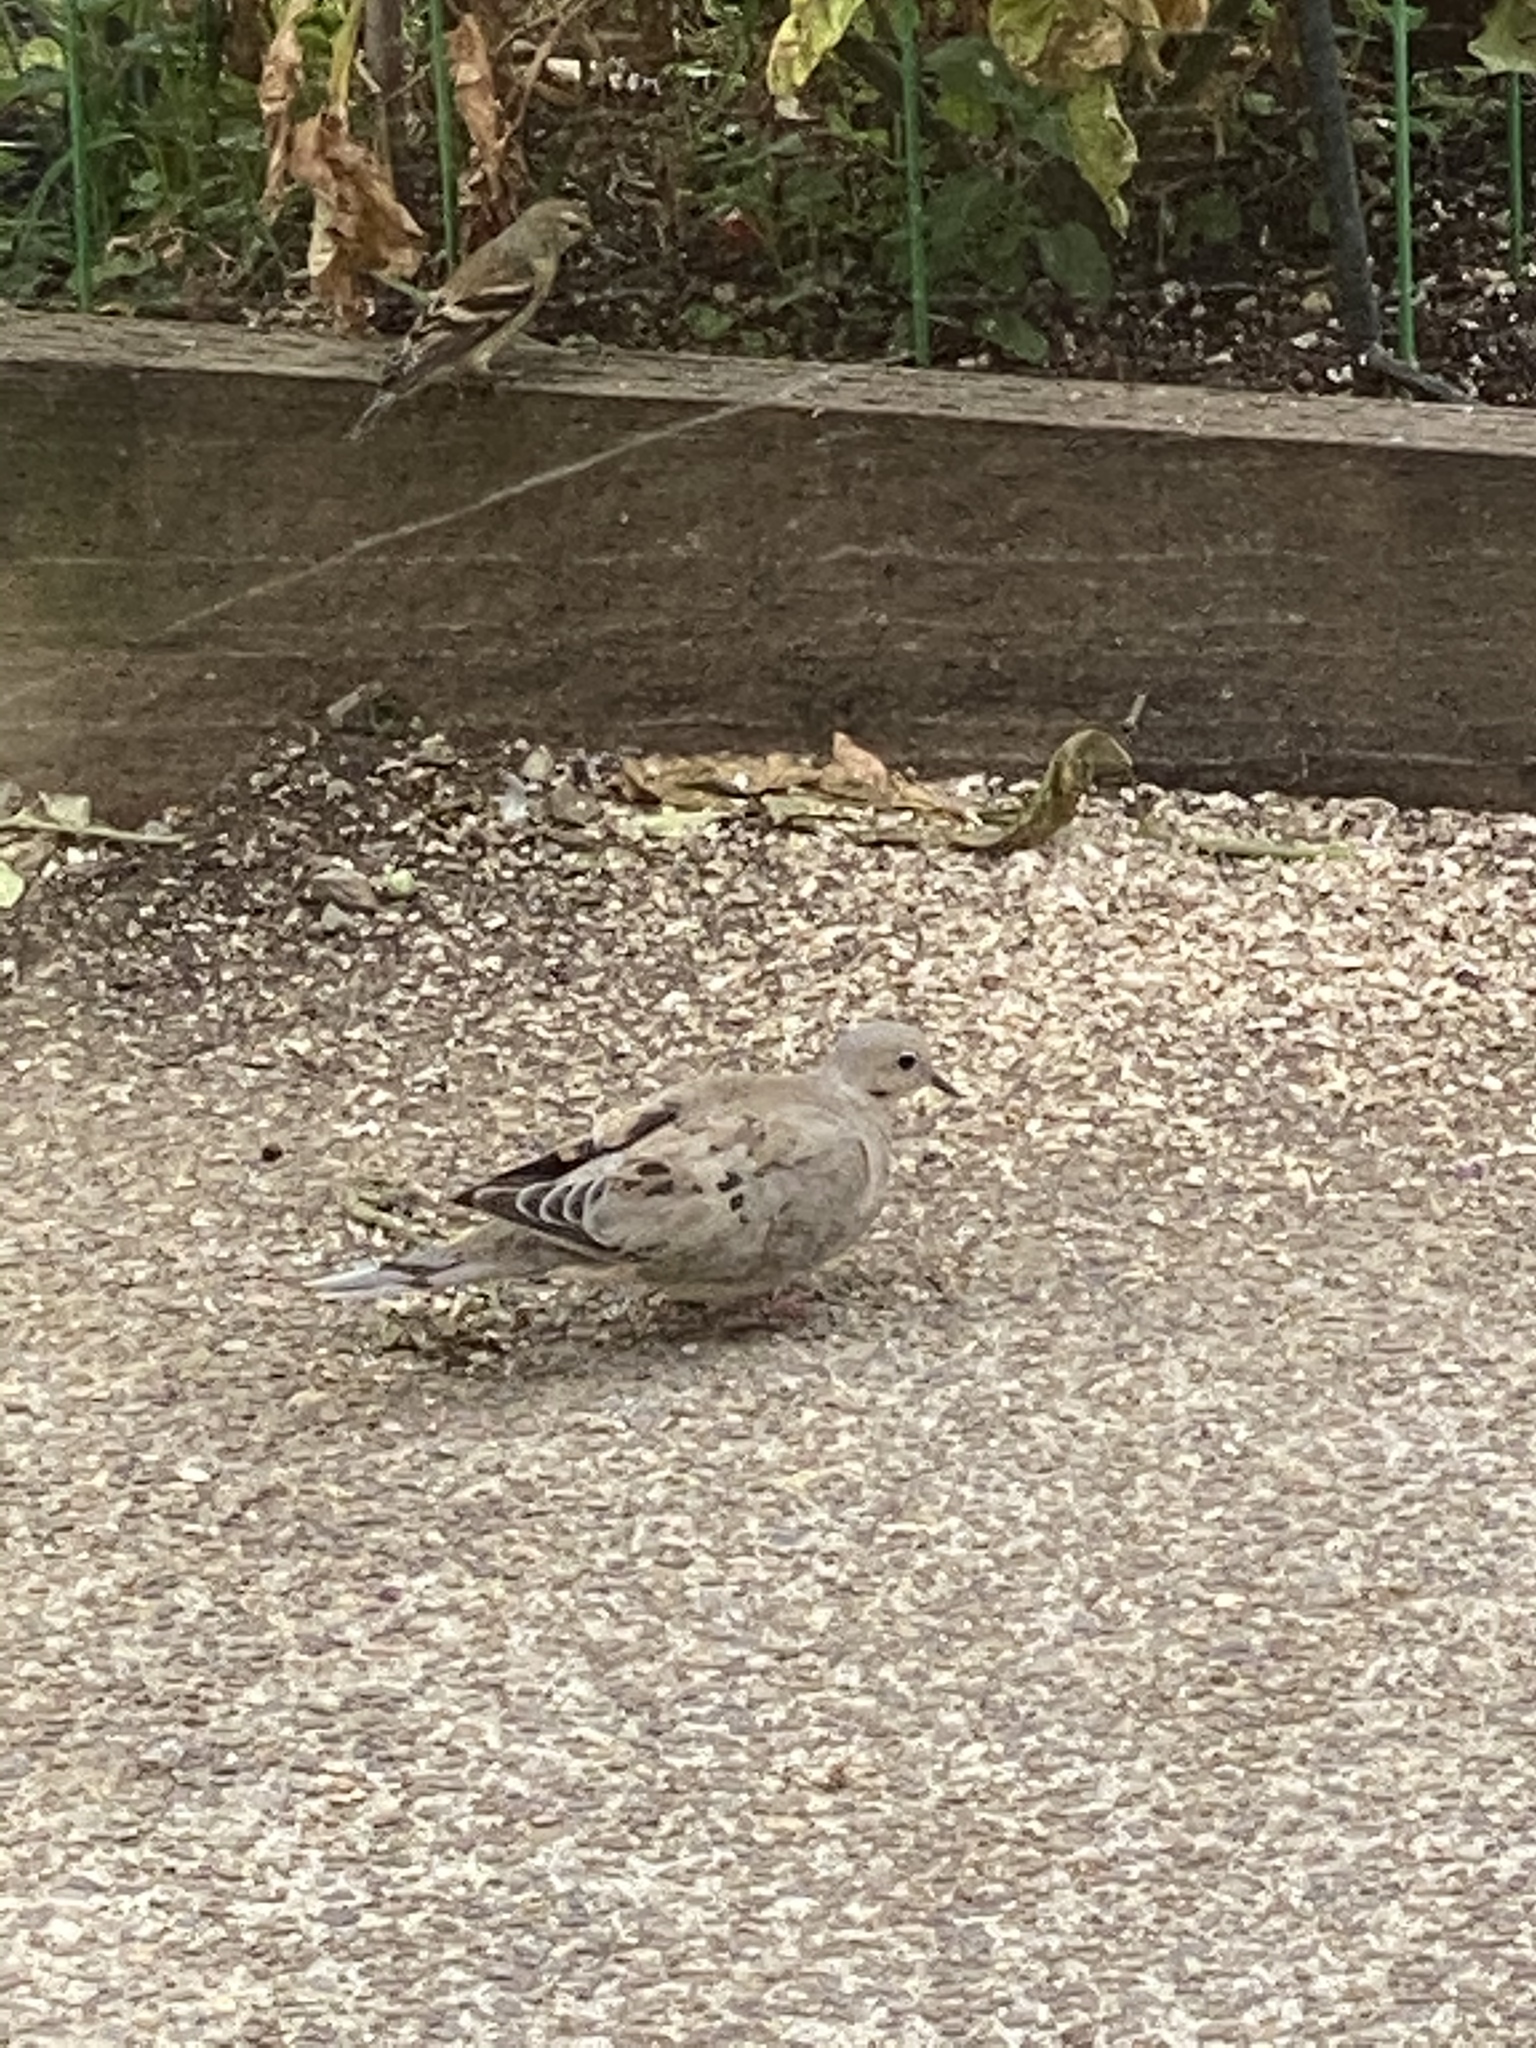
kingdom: Animalia
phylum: Chordata
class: Aves
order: Columbiformes
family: Columbidae
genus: Zenaida
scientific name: Zenaida macroura
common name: Mourning dove
